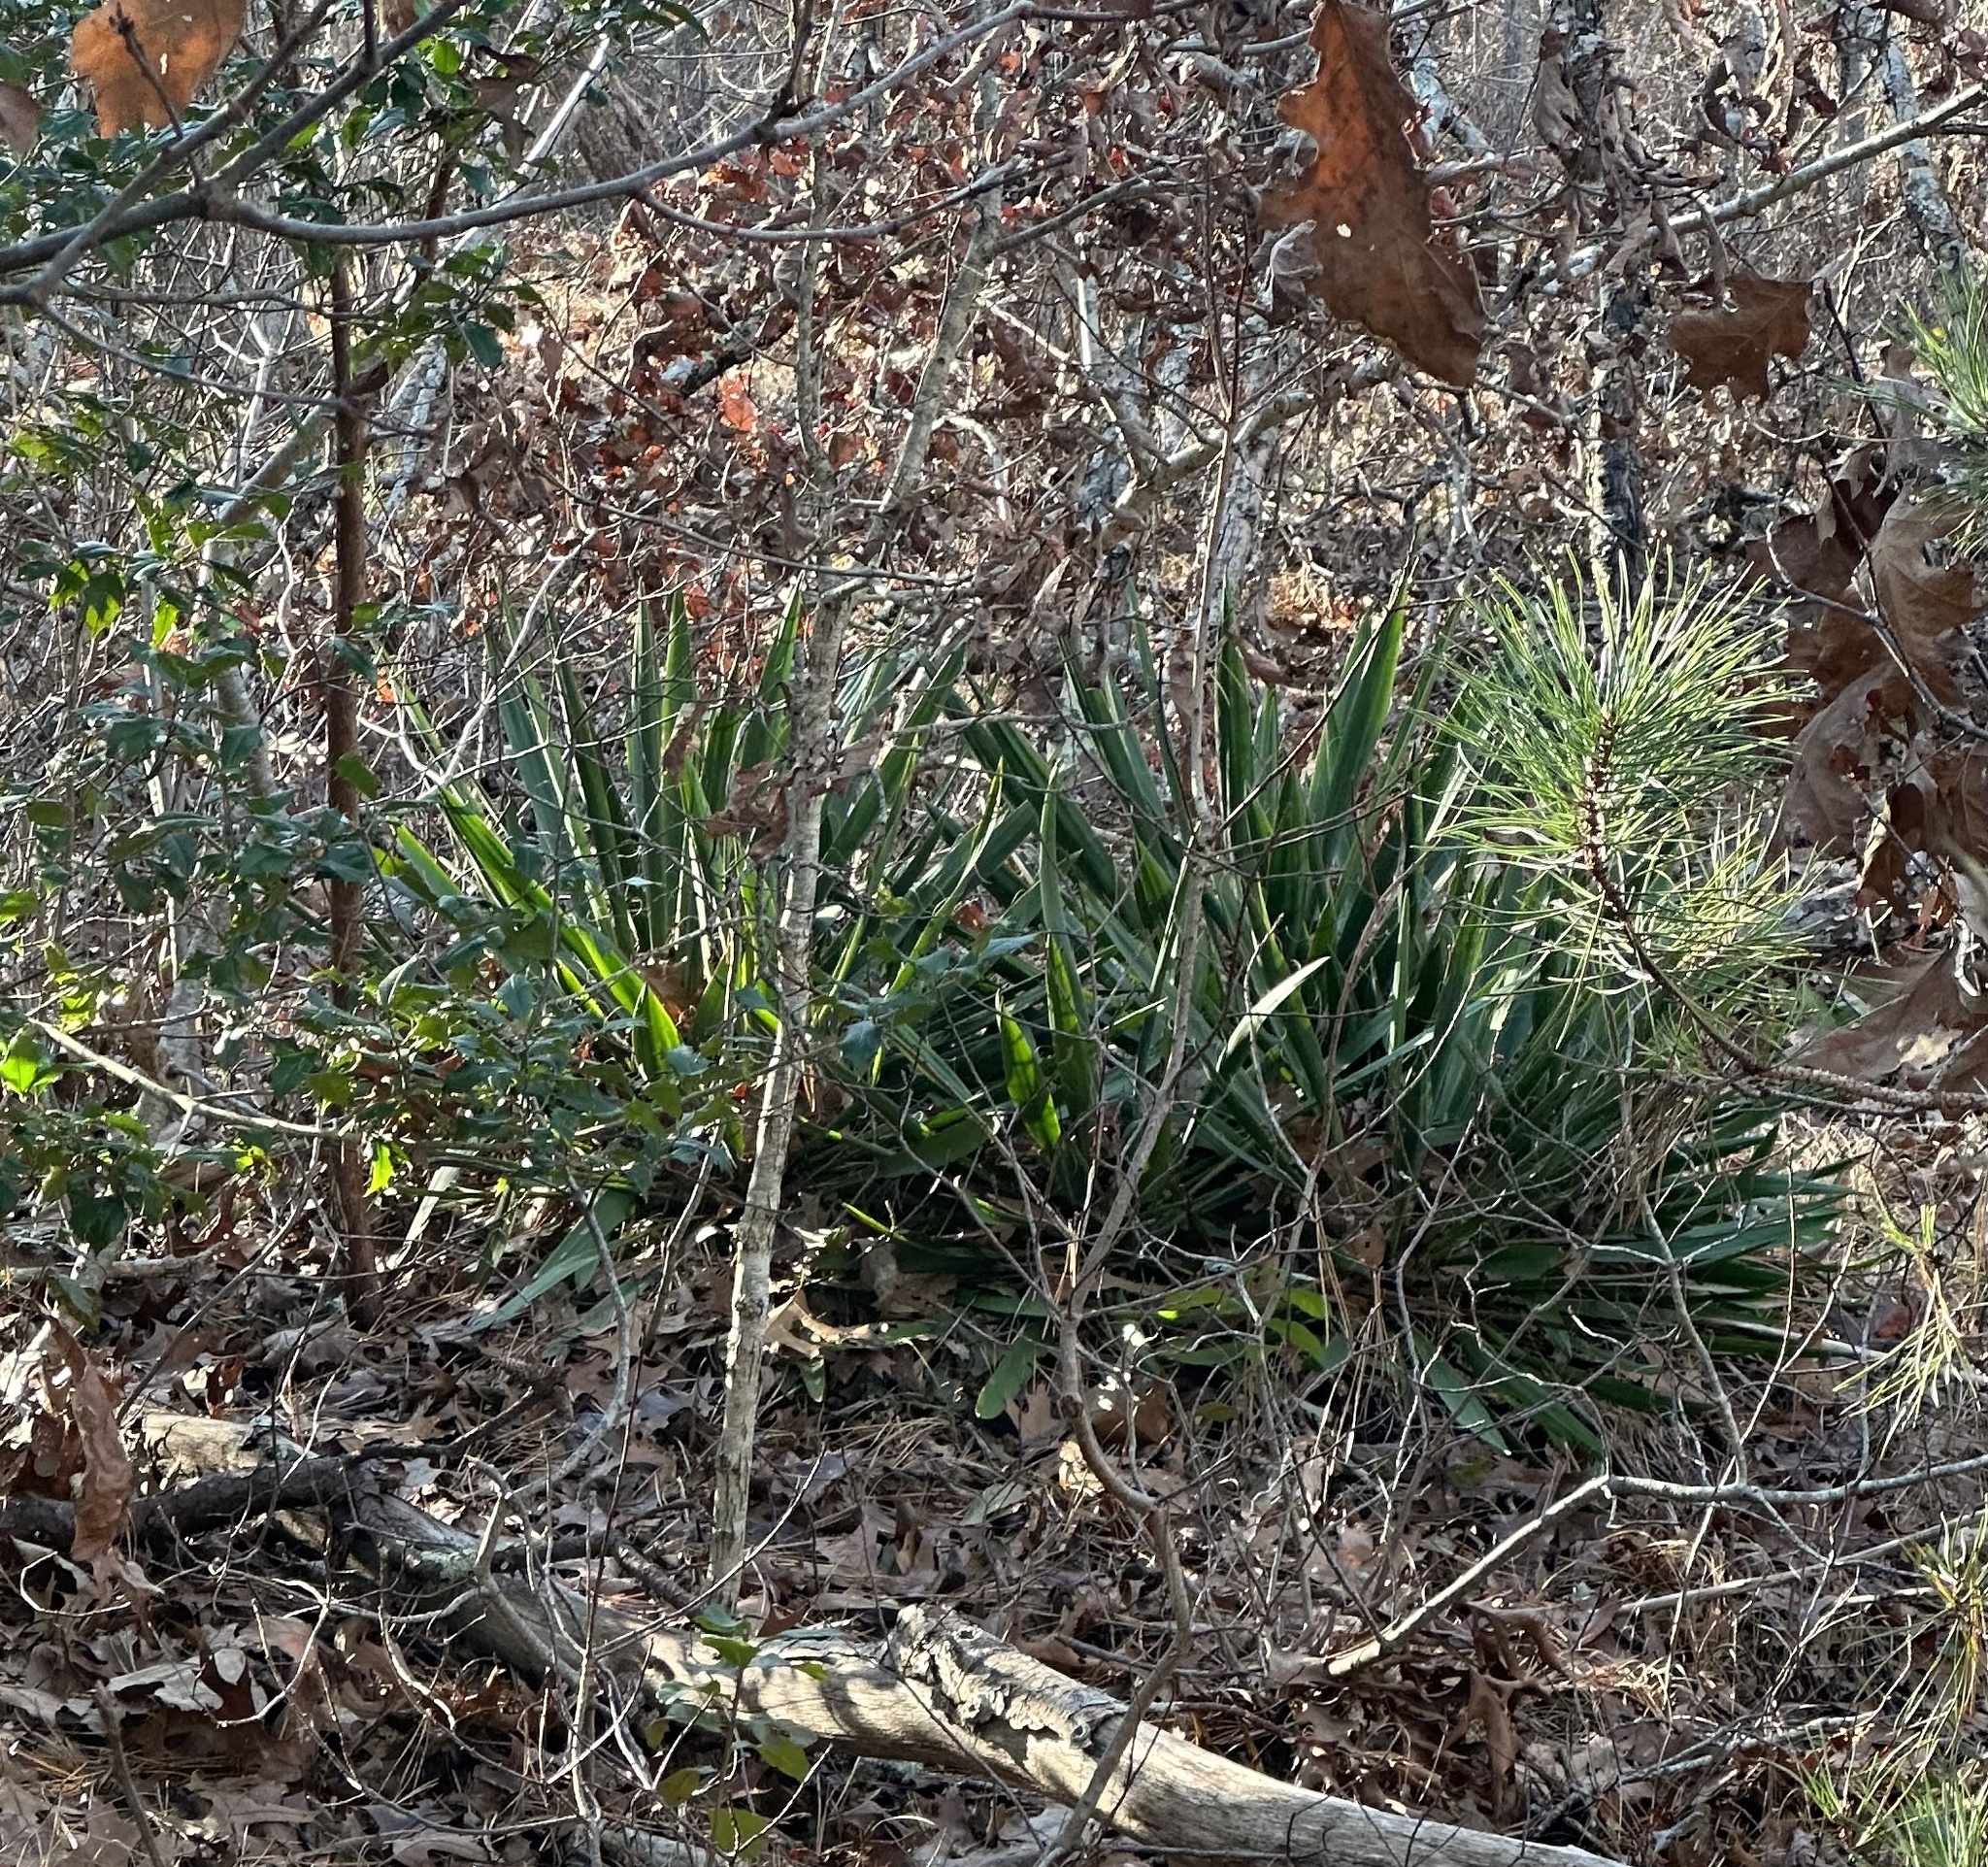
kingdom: Plantae
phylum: Tracheophyta
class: Liliopsida
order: Asparagales
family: Asparagaceae
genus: Yucca
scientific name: Yucca filamentosa
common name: Adam's-needle
